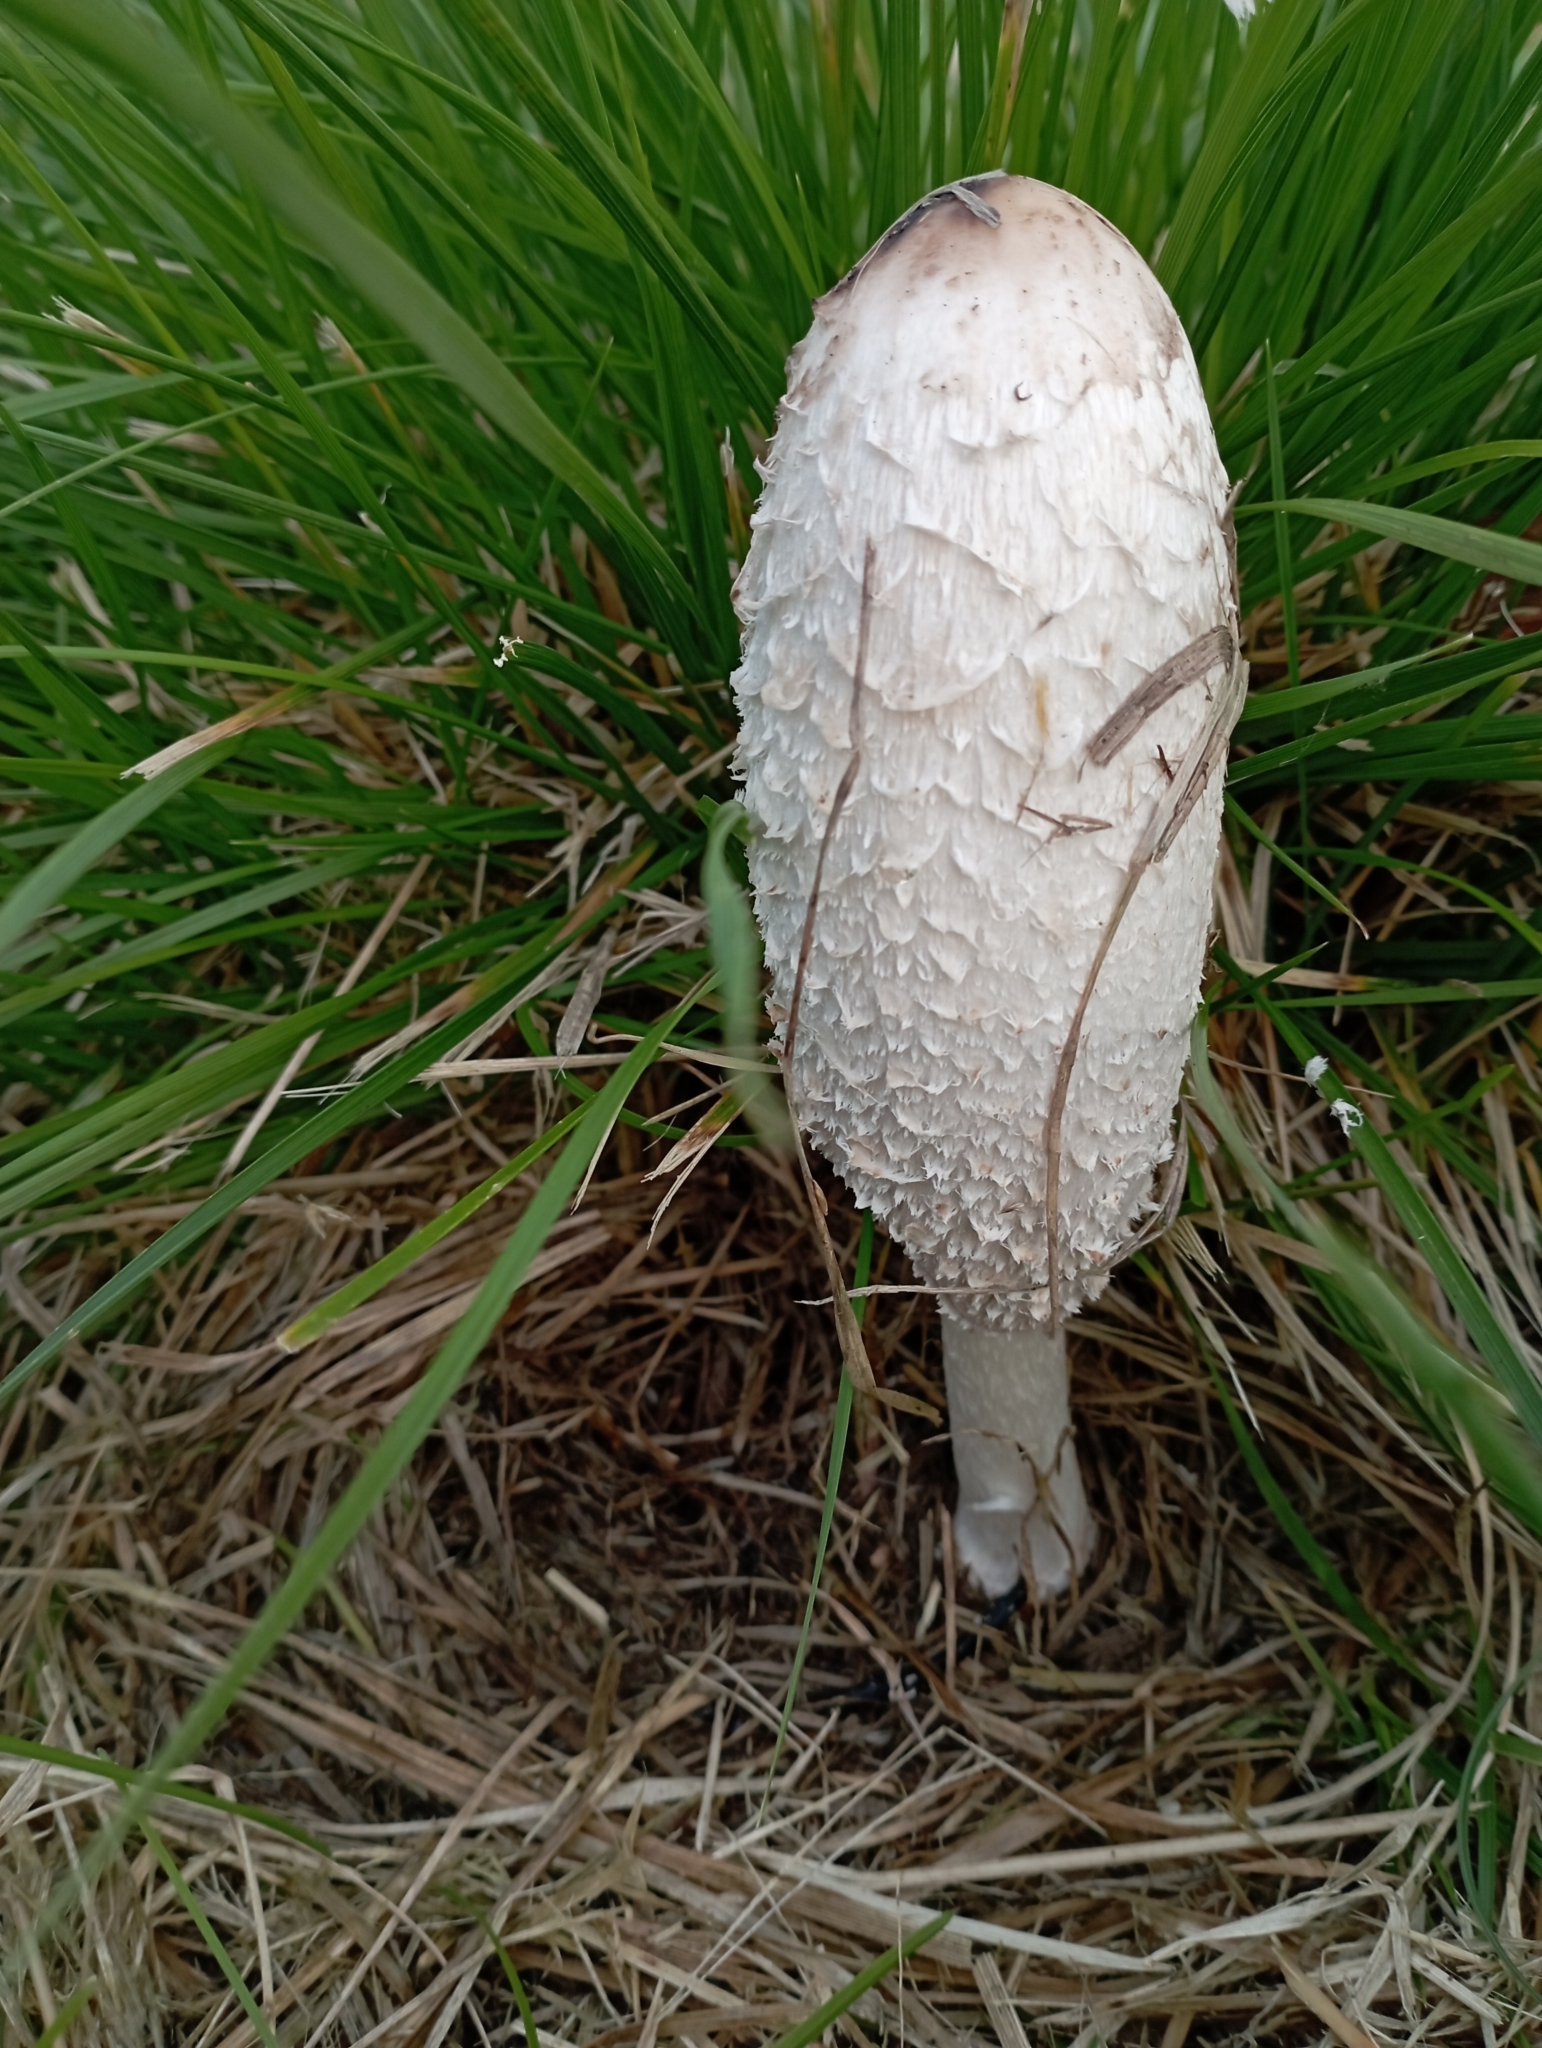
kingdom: Fungi
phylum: Basidiomycota
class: Agaricomycetes
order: Agaricales
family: Agaricaceae
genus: Coprinus
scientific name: Coprinus comatus
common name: Lawyer's wig
